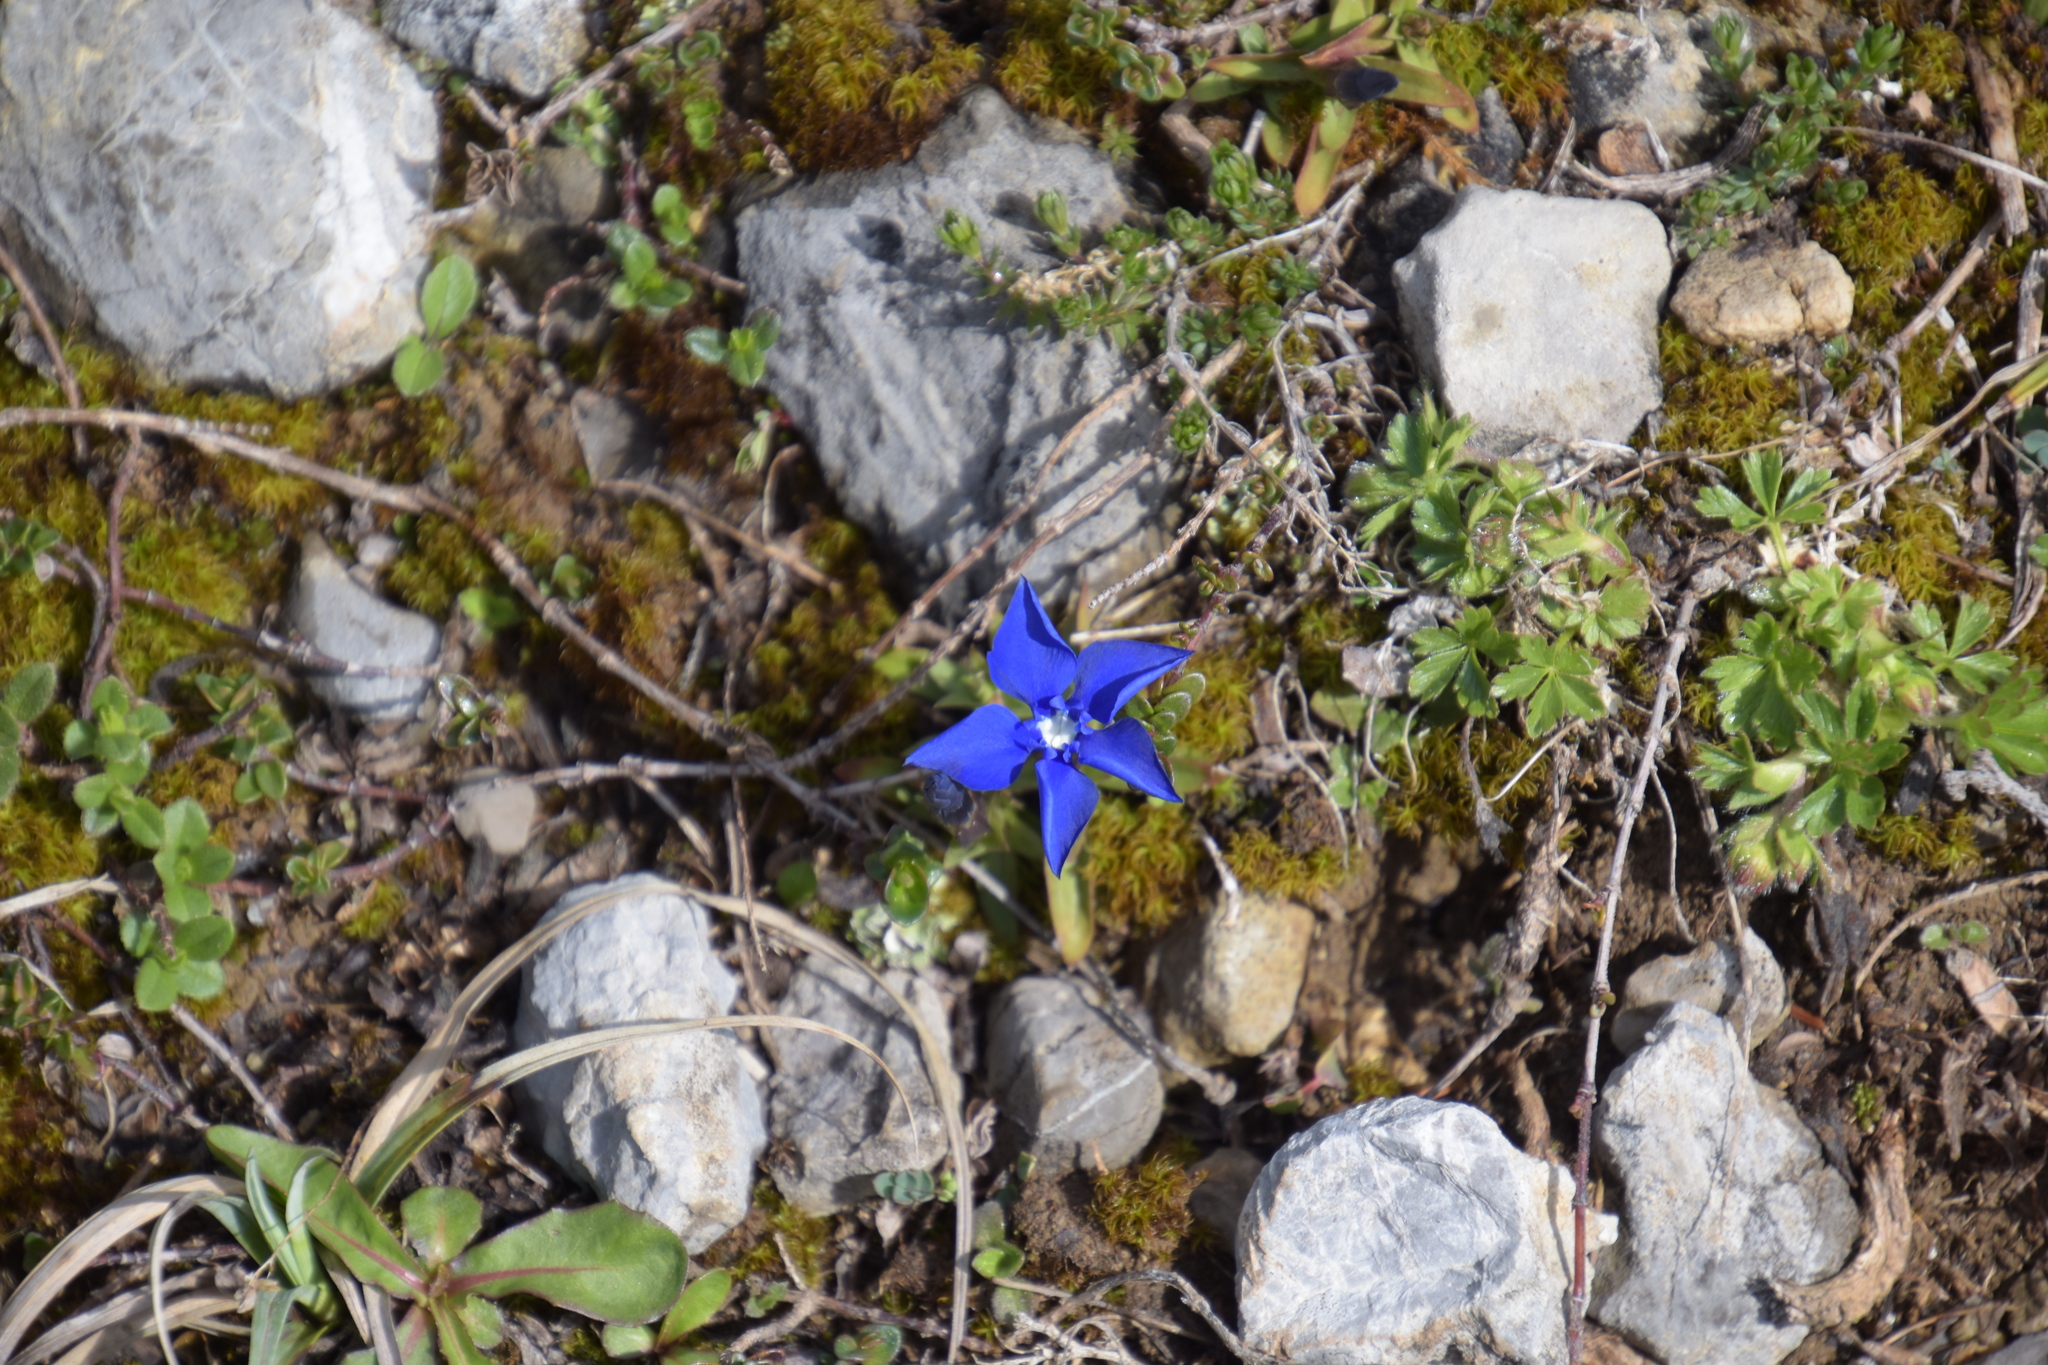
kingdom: Plantae
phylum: Tracheophyta
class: Magnoliopsida
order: Gentianales
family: Gentianaceae
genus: Gentiana
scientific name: Gentiana verna
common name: Spring gentian
